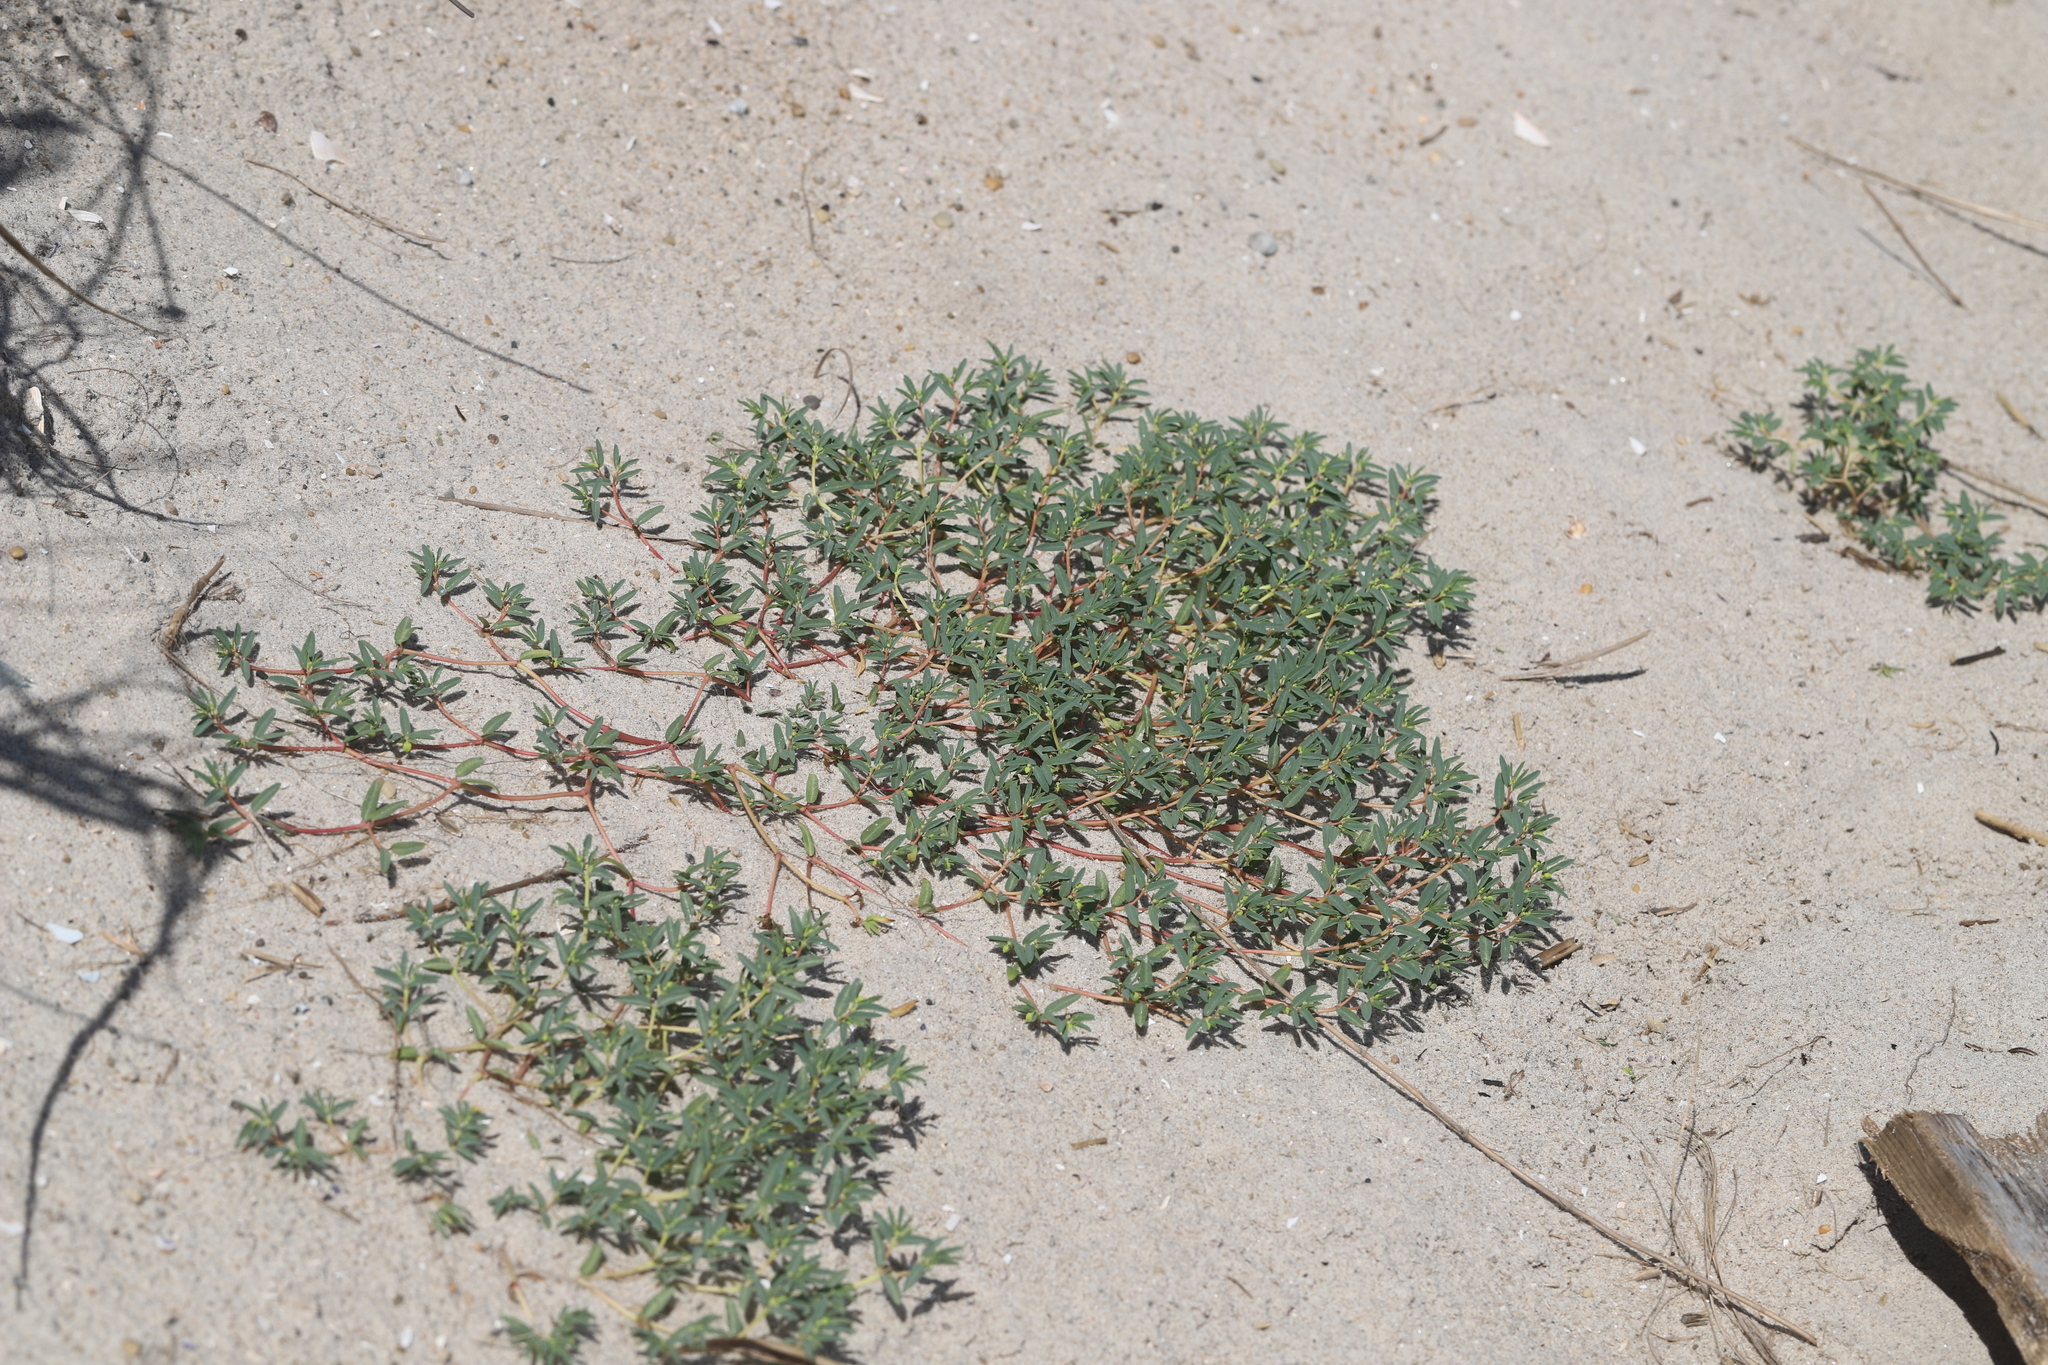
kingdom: Plantae
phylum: Tracheophyta
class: Magnoliopsida
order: Malpighiales
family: Euphorbiaceae
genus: Euphorbia
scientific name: Euphorbia polygonifolia
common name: Knotweed spurge
